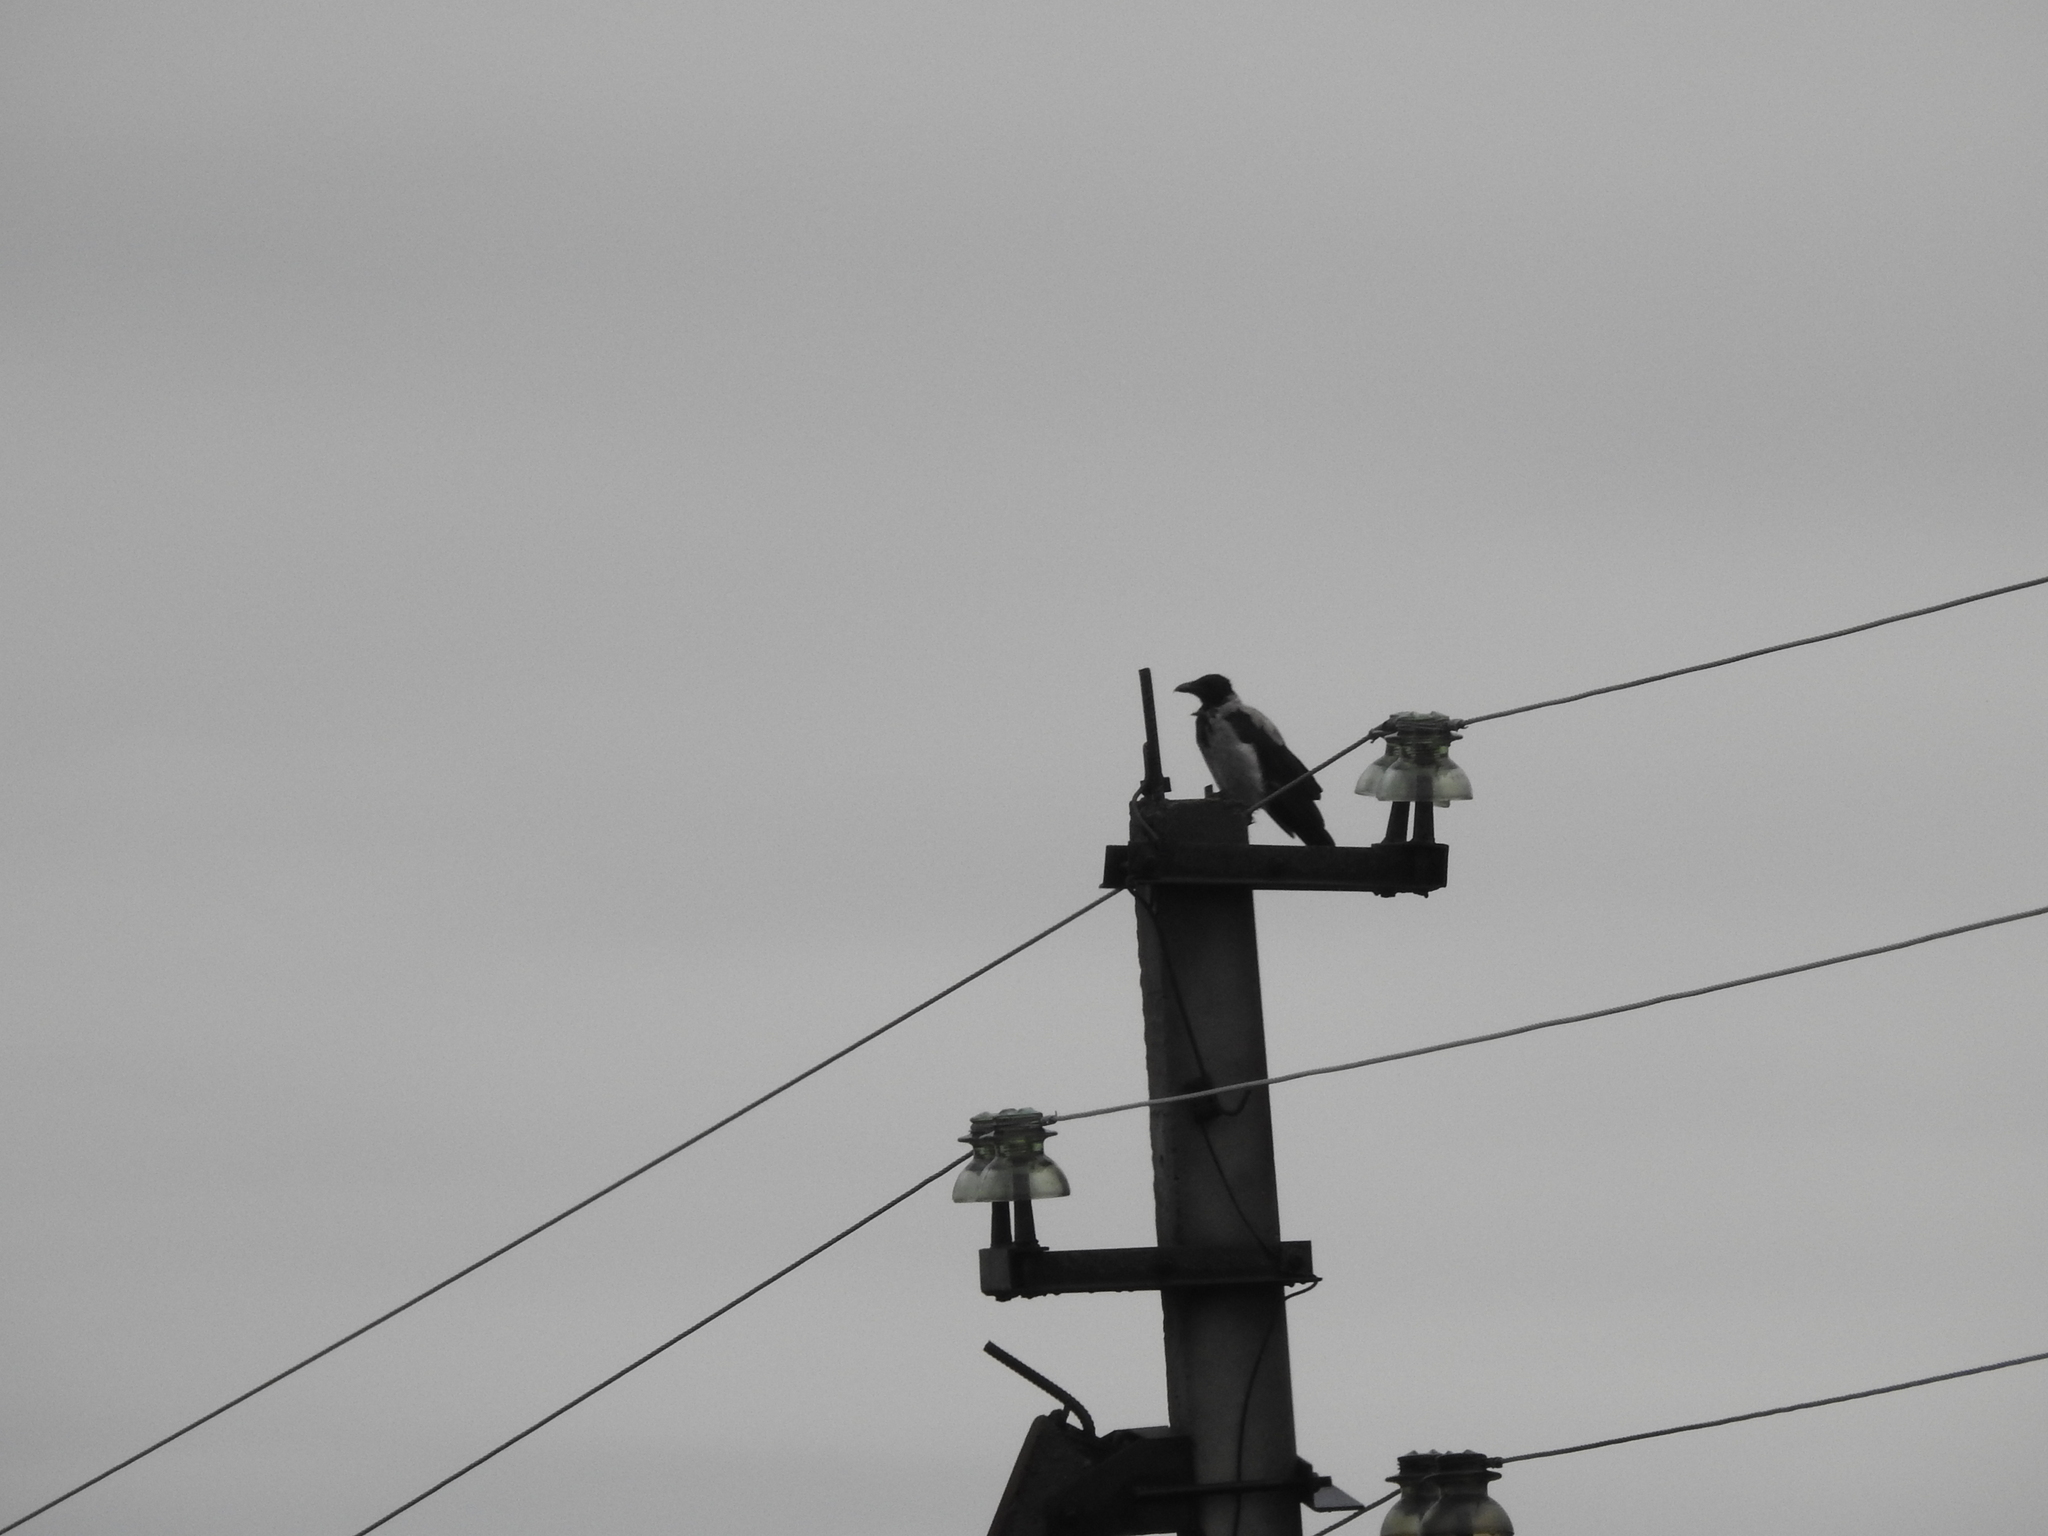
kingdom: Animalia
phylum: Chordata
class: Aves
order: Passeriformes
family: Corvidae
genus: Corvus
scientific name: Corvus cornix
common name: Hooded crow
